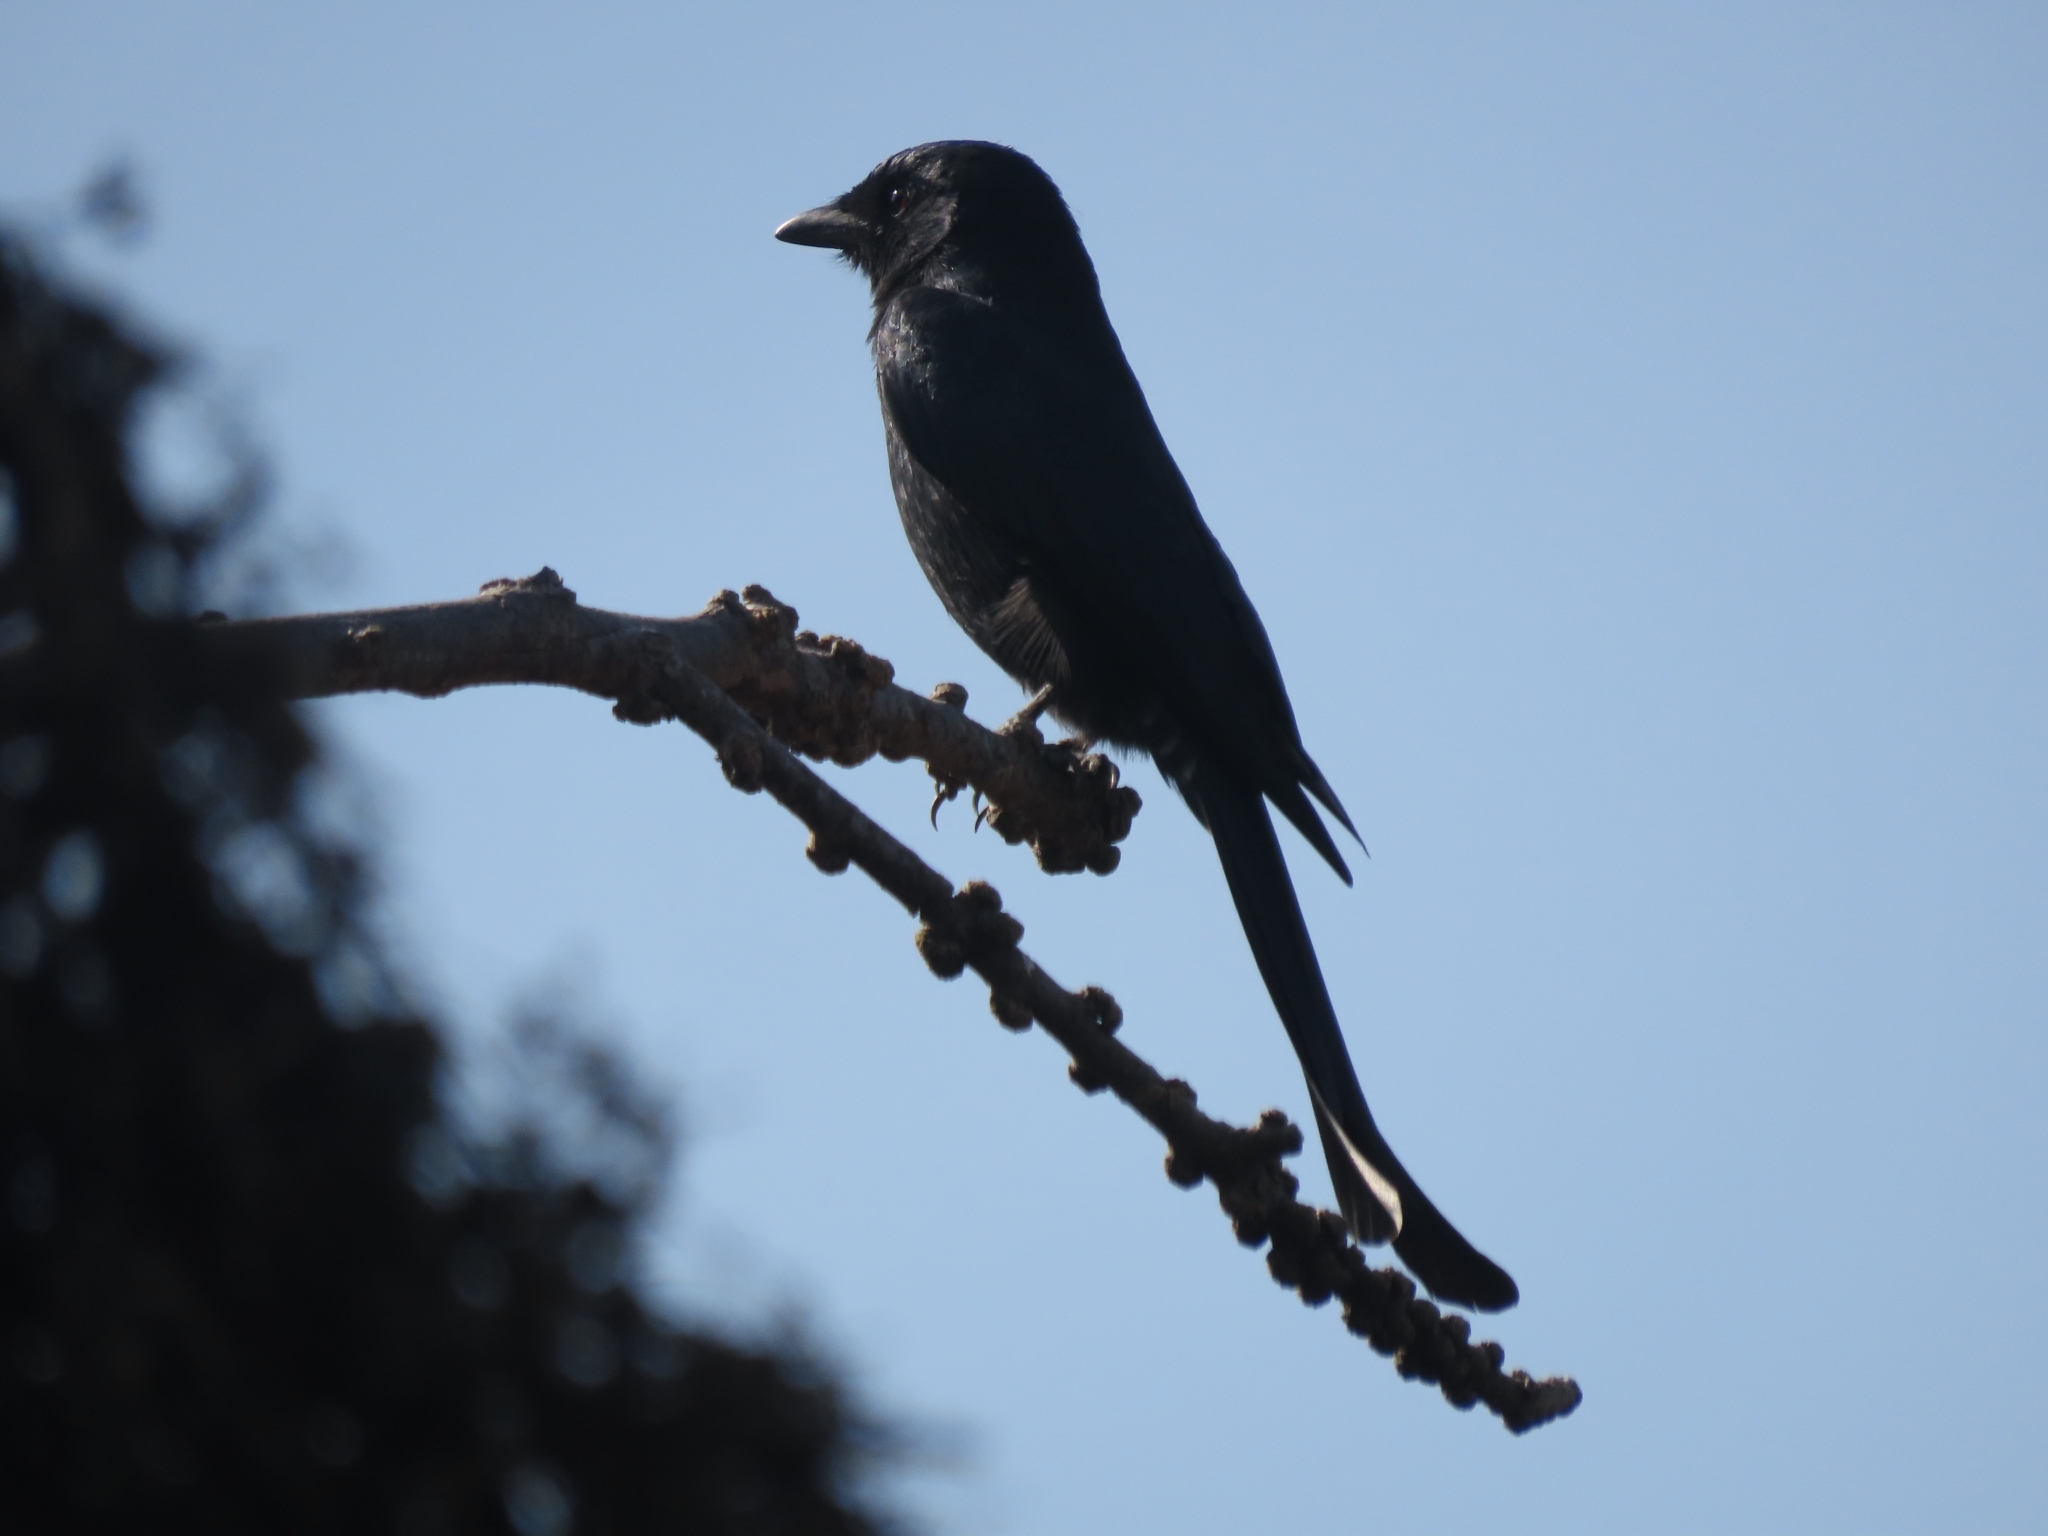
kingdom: Animalia
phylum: Chordata
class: Aves
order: Passeriformes
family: Dicruridae
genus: Dicrurus
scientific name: Dicrurus macrocercus
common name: Black drongo
